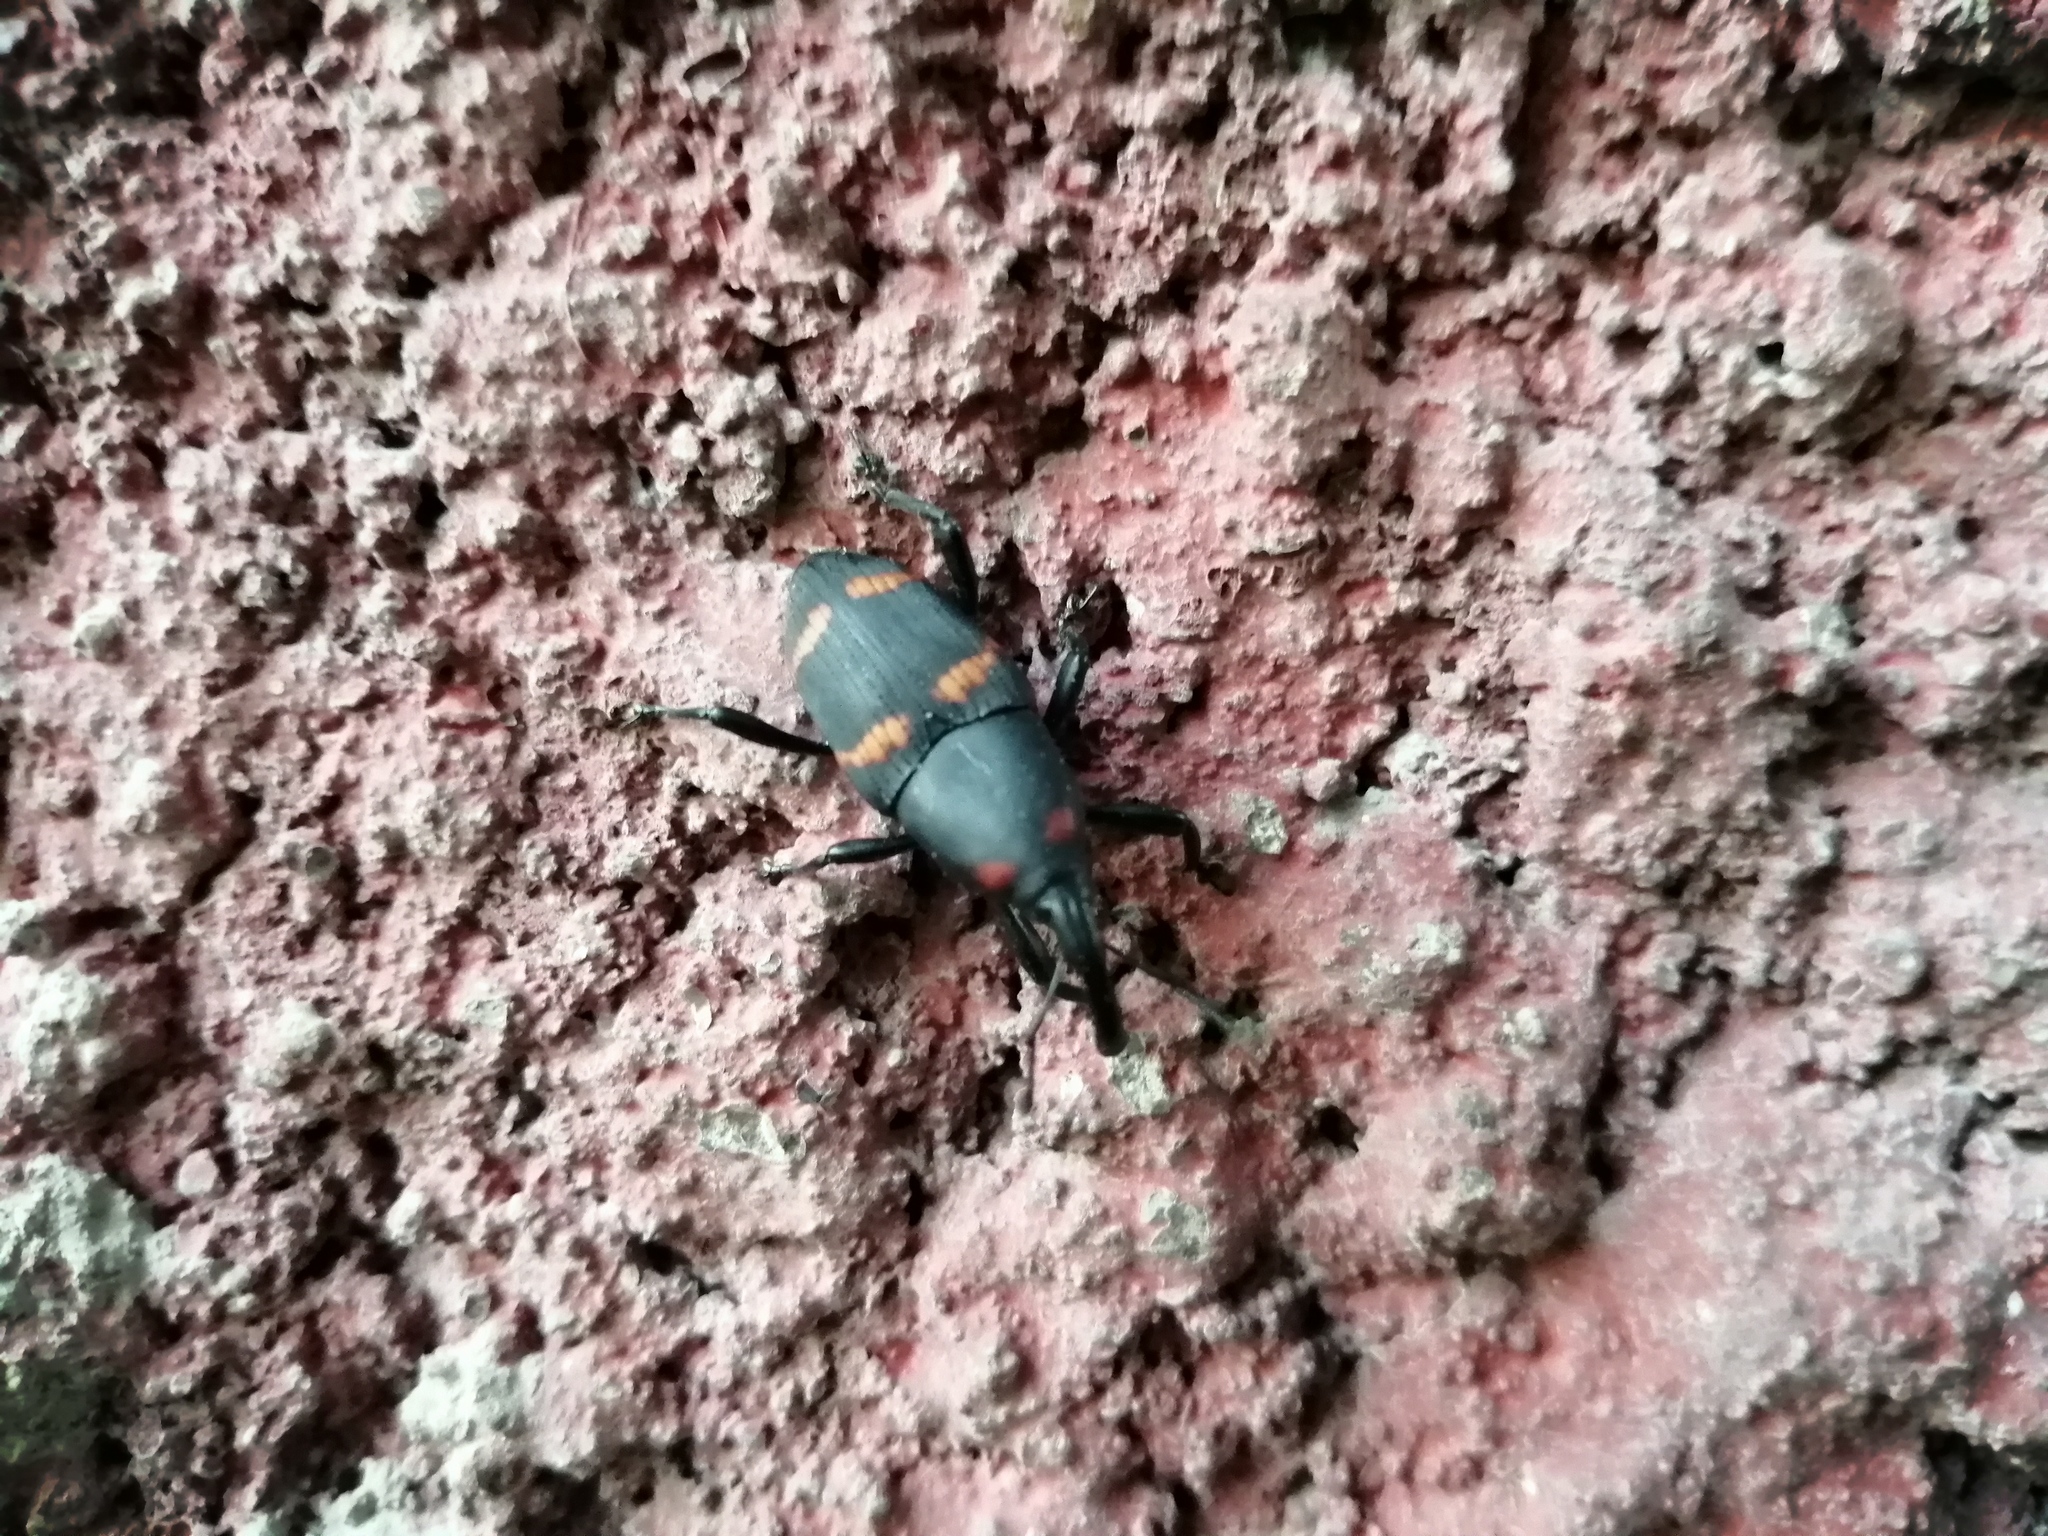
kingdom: Animalia
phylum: Arthropoda
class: Insecta
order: Coleoptera
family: Dryophthoridae
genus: Cactophagus
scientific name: Cactophagus spinolae
